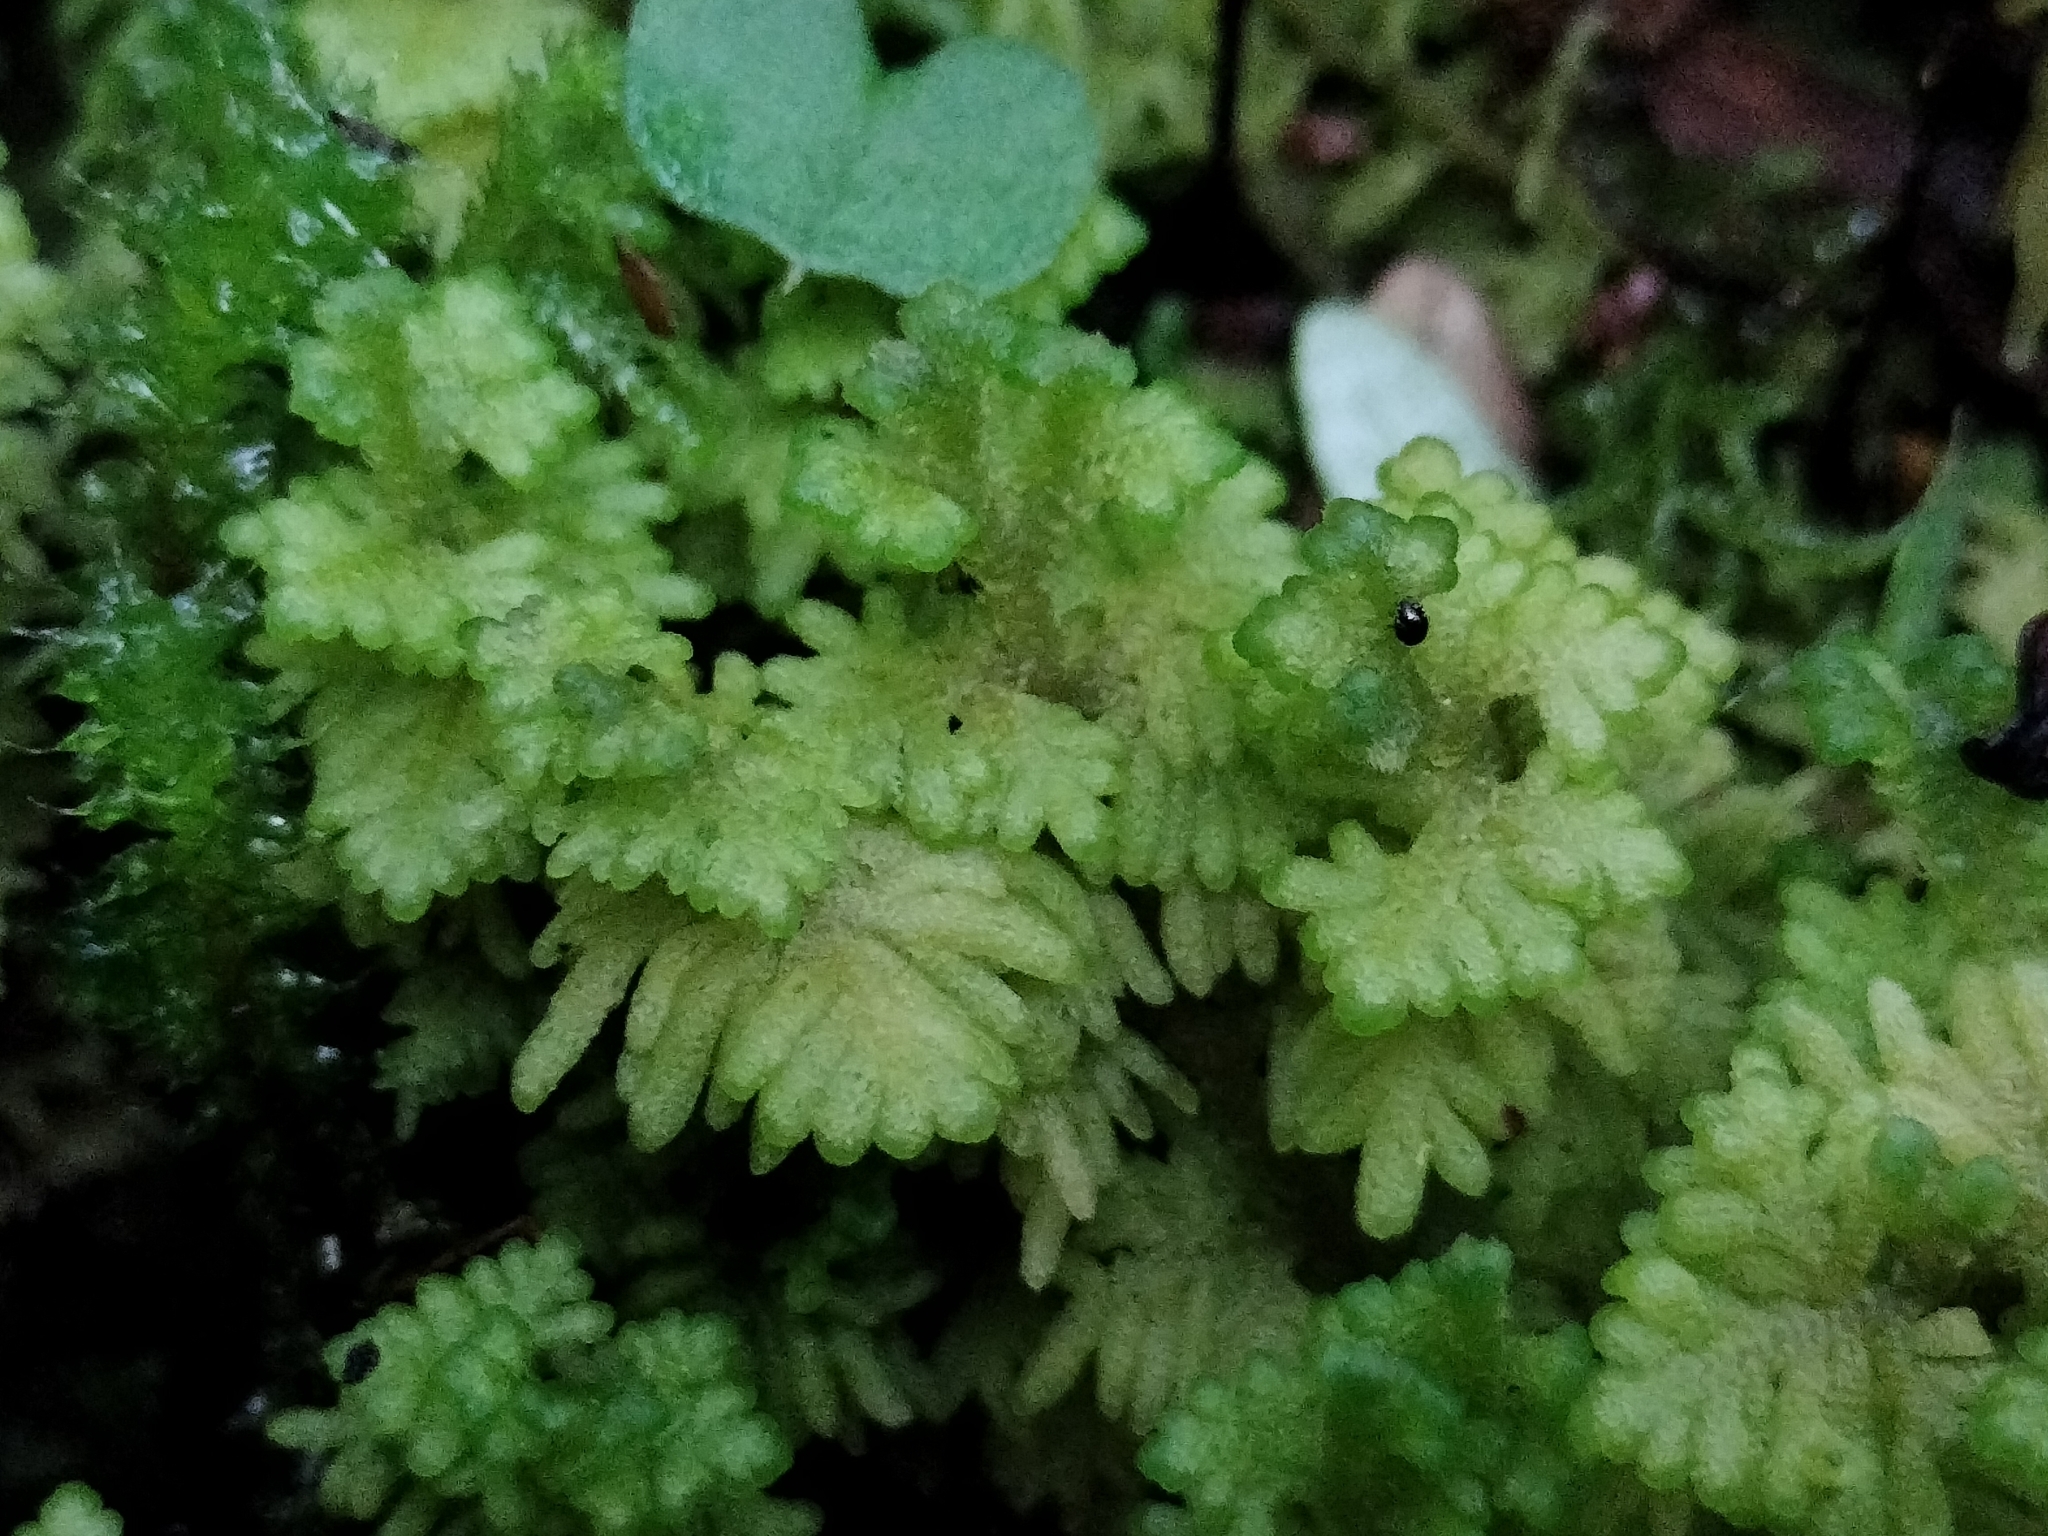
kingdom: Plantae
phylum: Marchantiophyta
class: Jungermanniopsida
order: Jungermanniales
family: Trichocoleaceae
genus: Trichocolea
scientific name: Trichocolea mollissima
